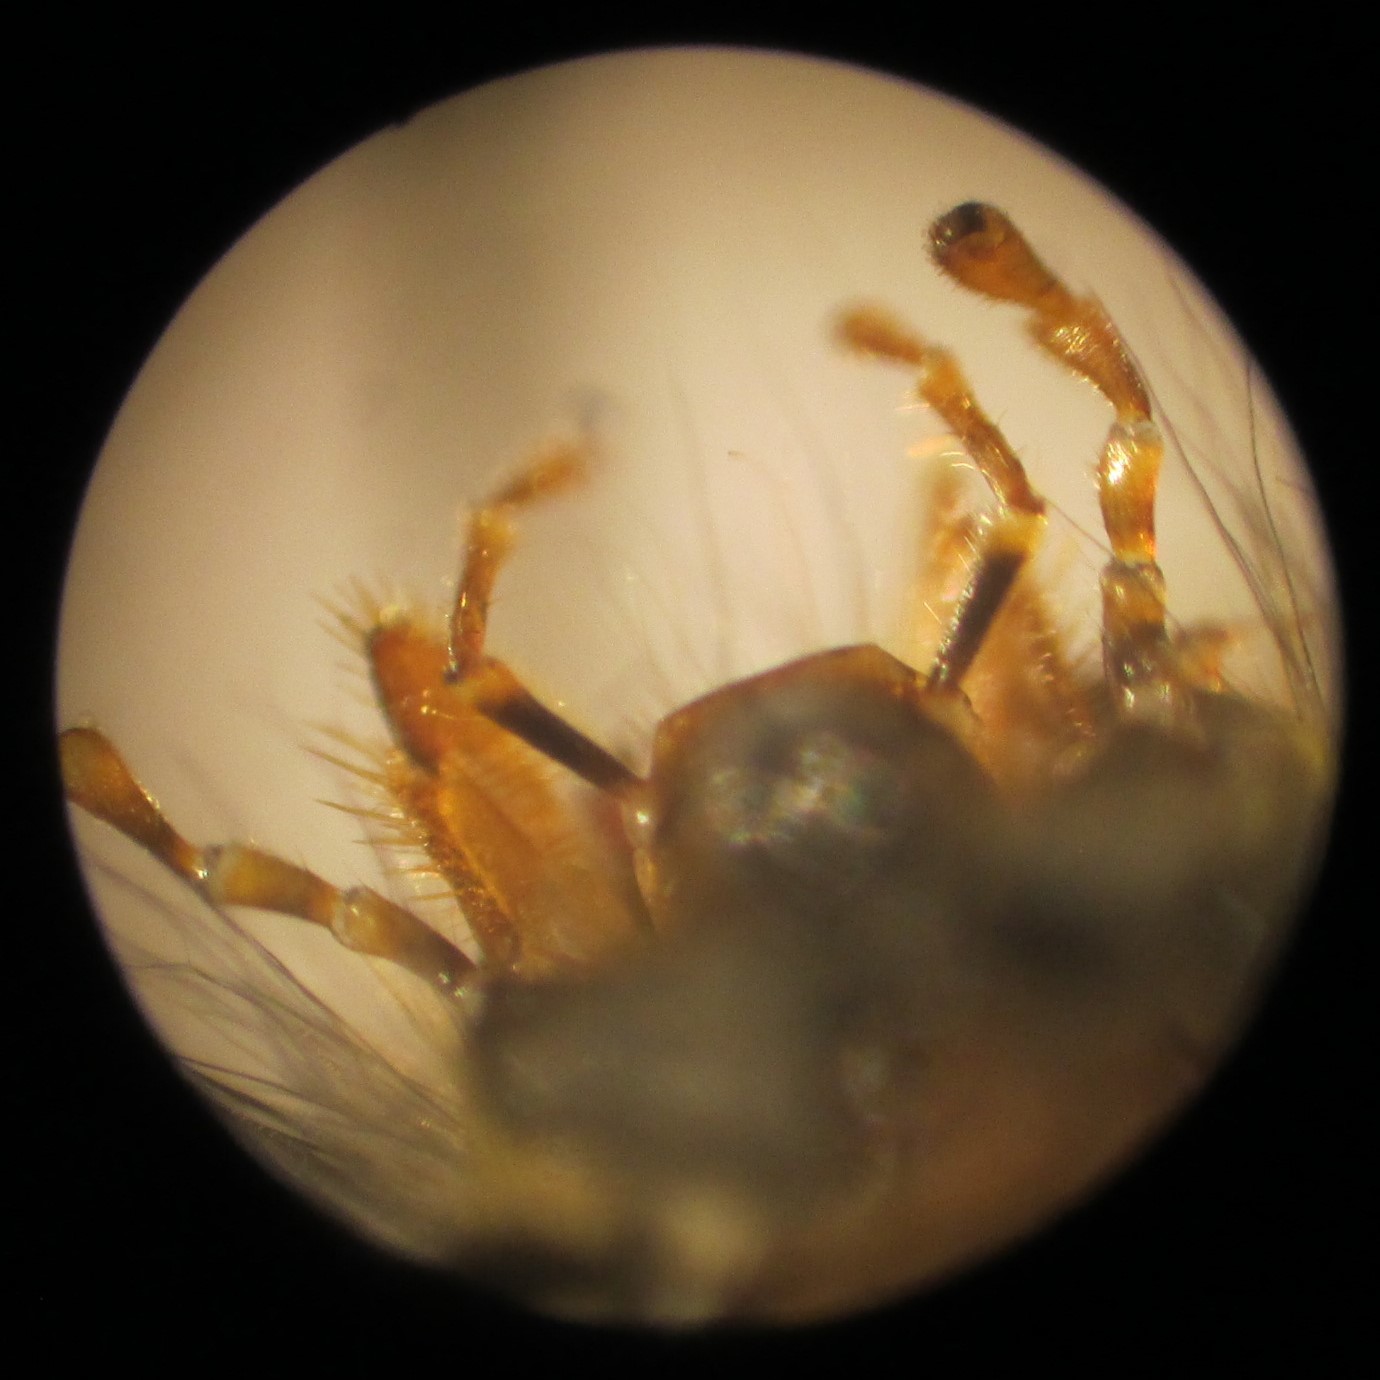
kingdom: Animalia
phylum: Arthropoda
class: Insecta
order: Hymenoptera
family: Vespidae
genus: Vespula
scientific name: Vespula vulgaris
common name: Common wasp
